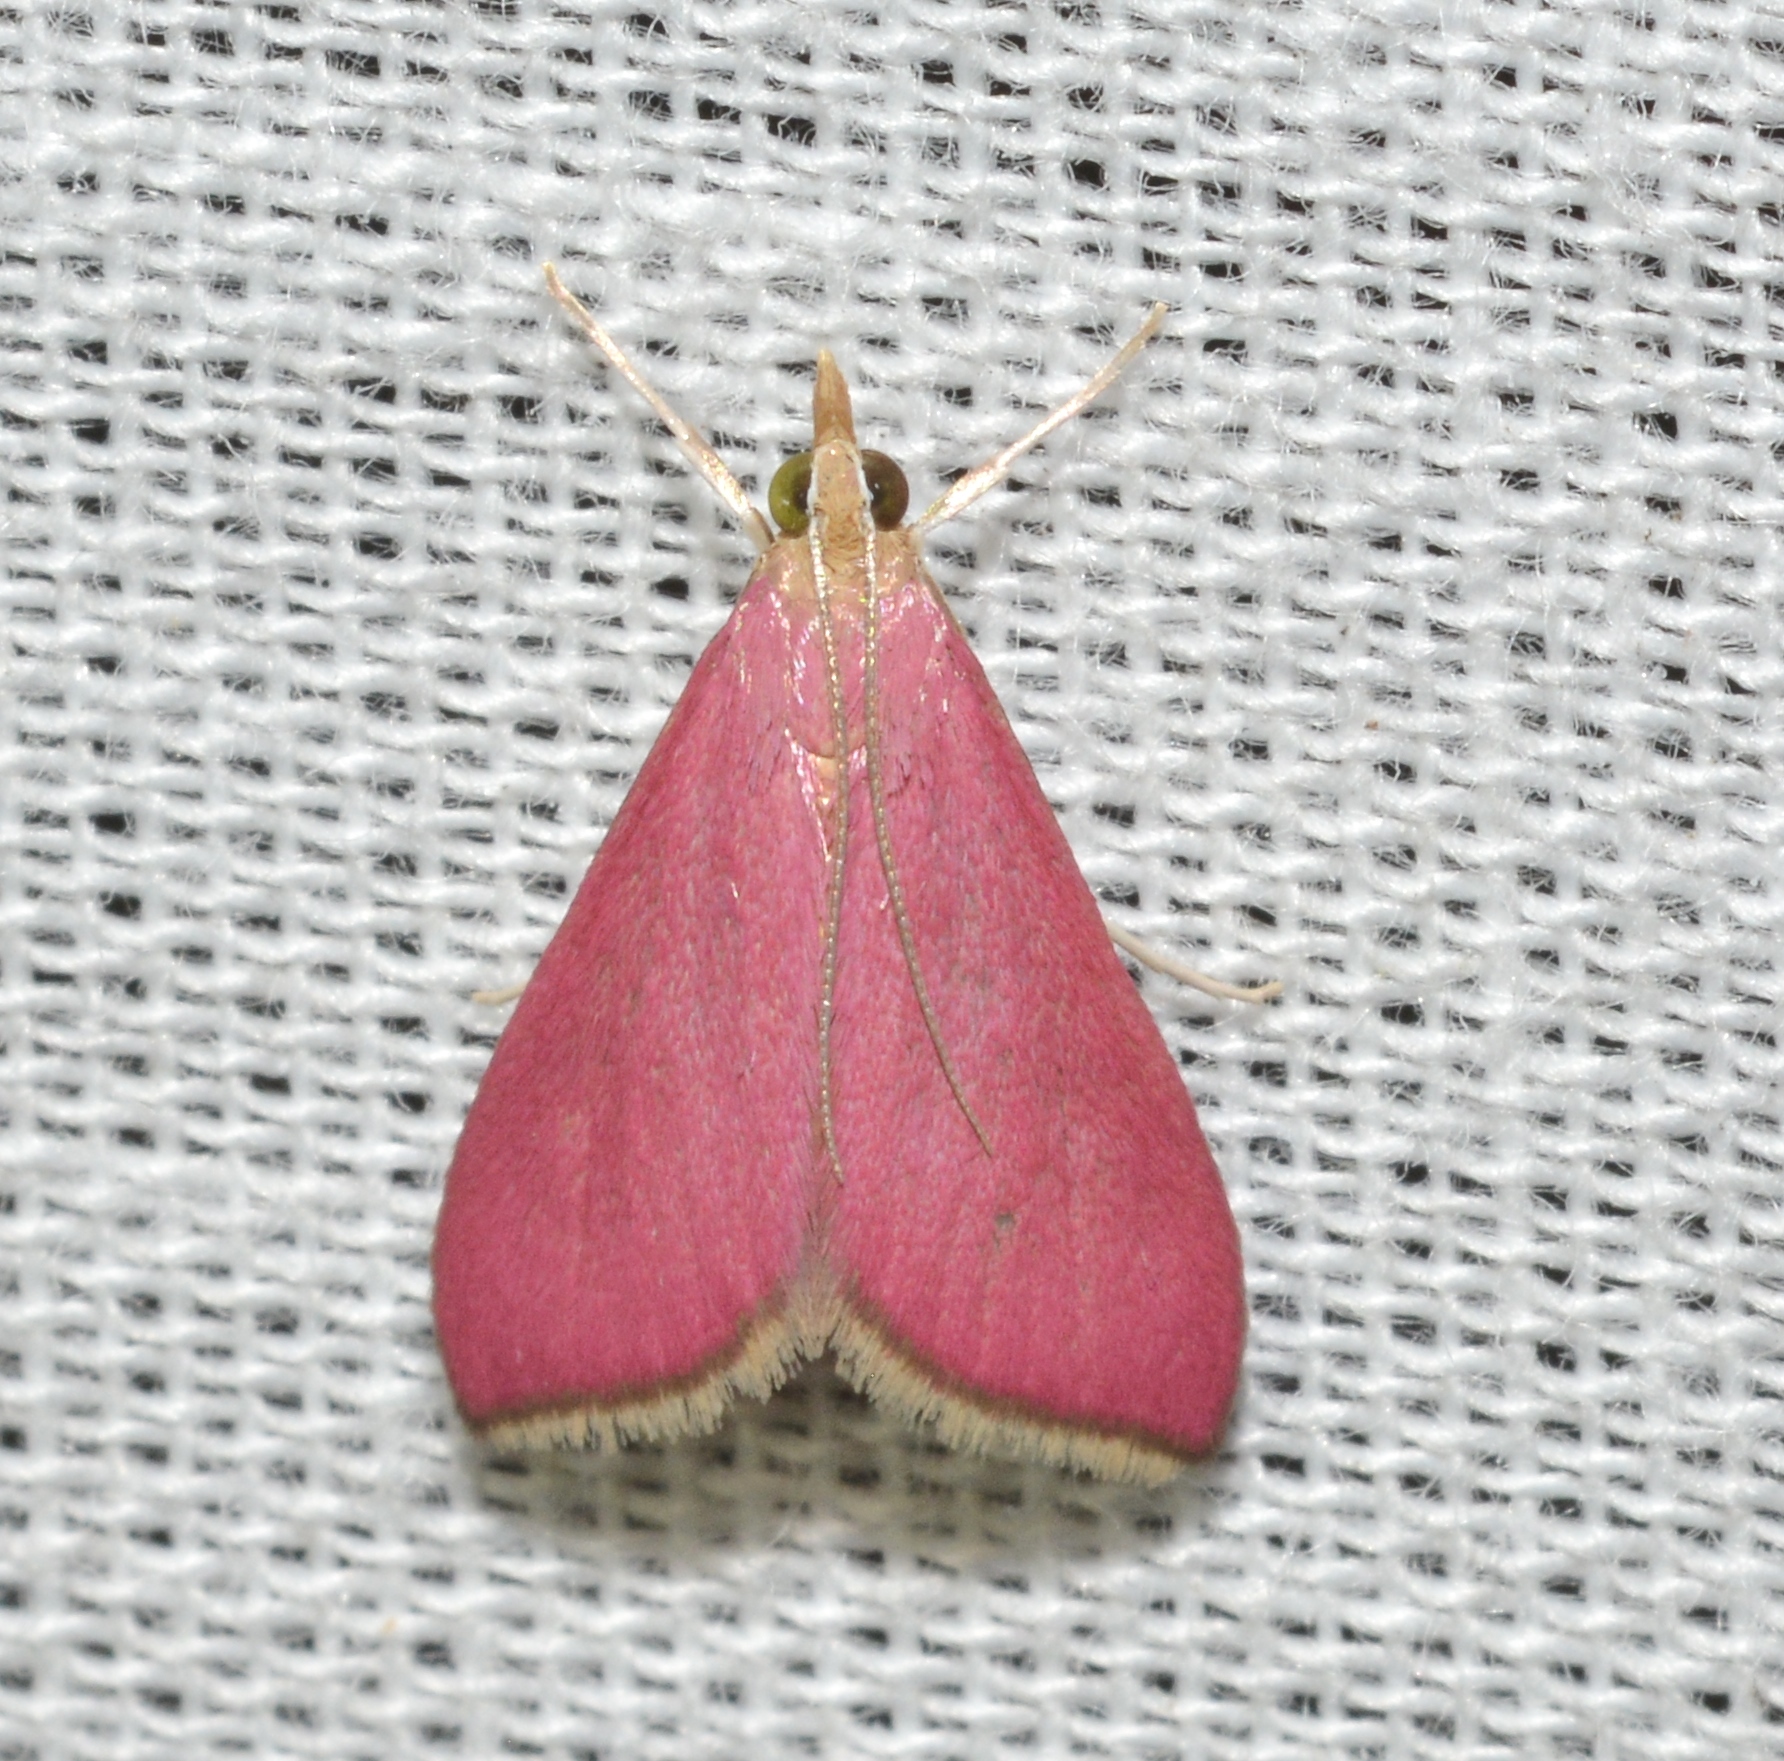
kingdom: Animalia
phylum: Arthropoda
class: Insecta
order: Lepidoptera
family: Crambidae
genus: Pyrausta
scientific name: Pyrausta inornatalis
